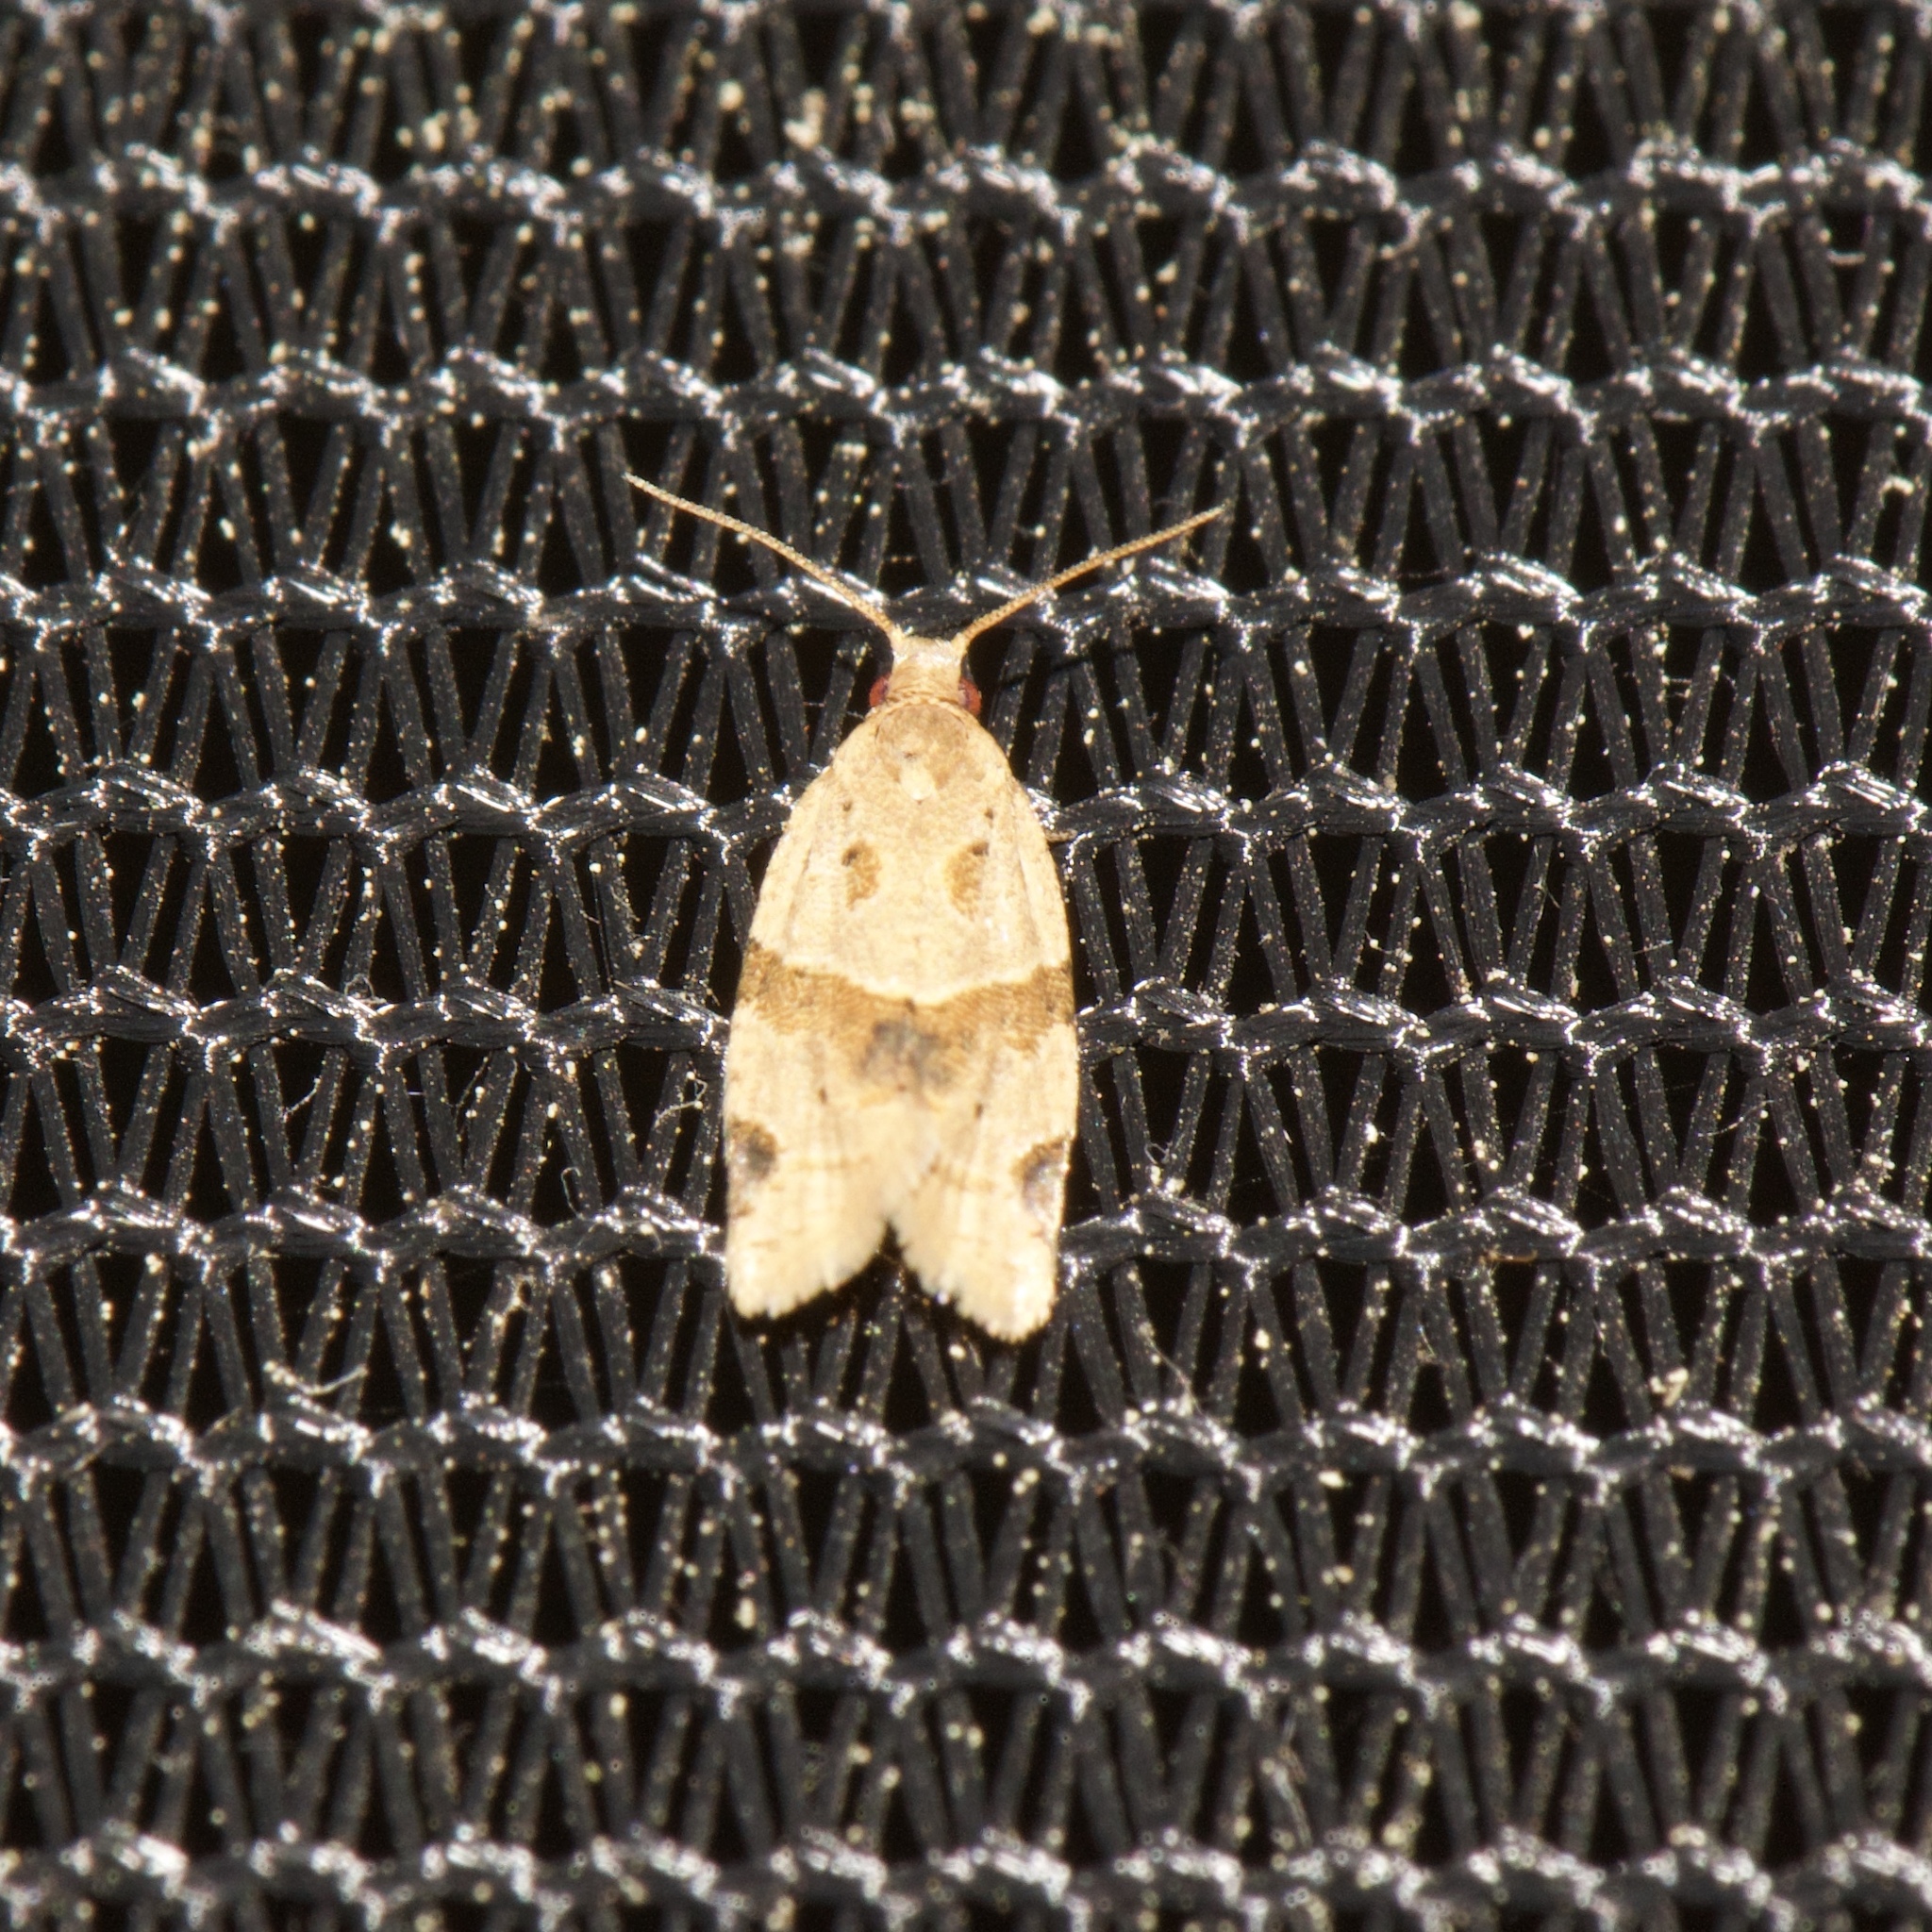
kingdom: Animalia
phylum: Arthropoda
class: Insecta
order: Lepidoptera
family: Tortricidae
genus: Clepsis
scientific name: Clepsis peritana
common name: Garden tortrix
